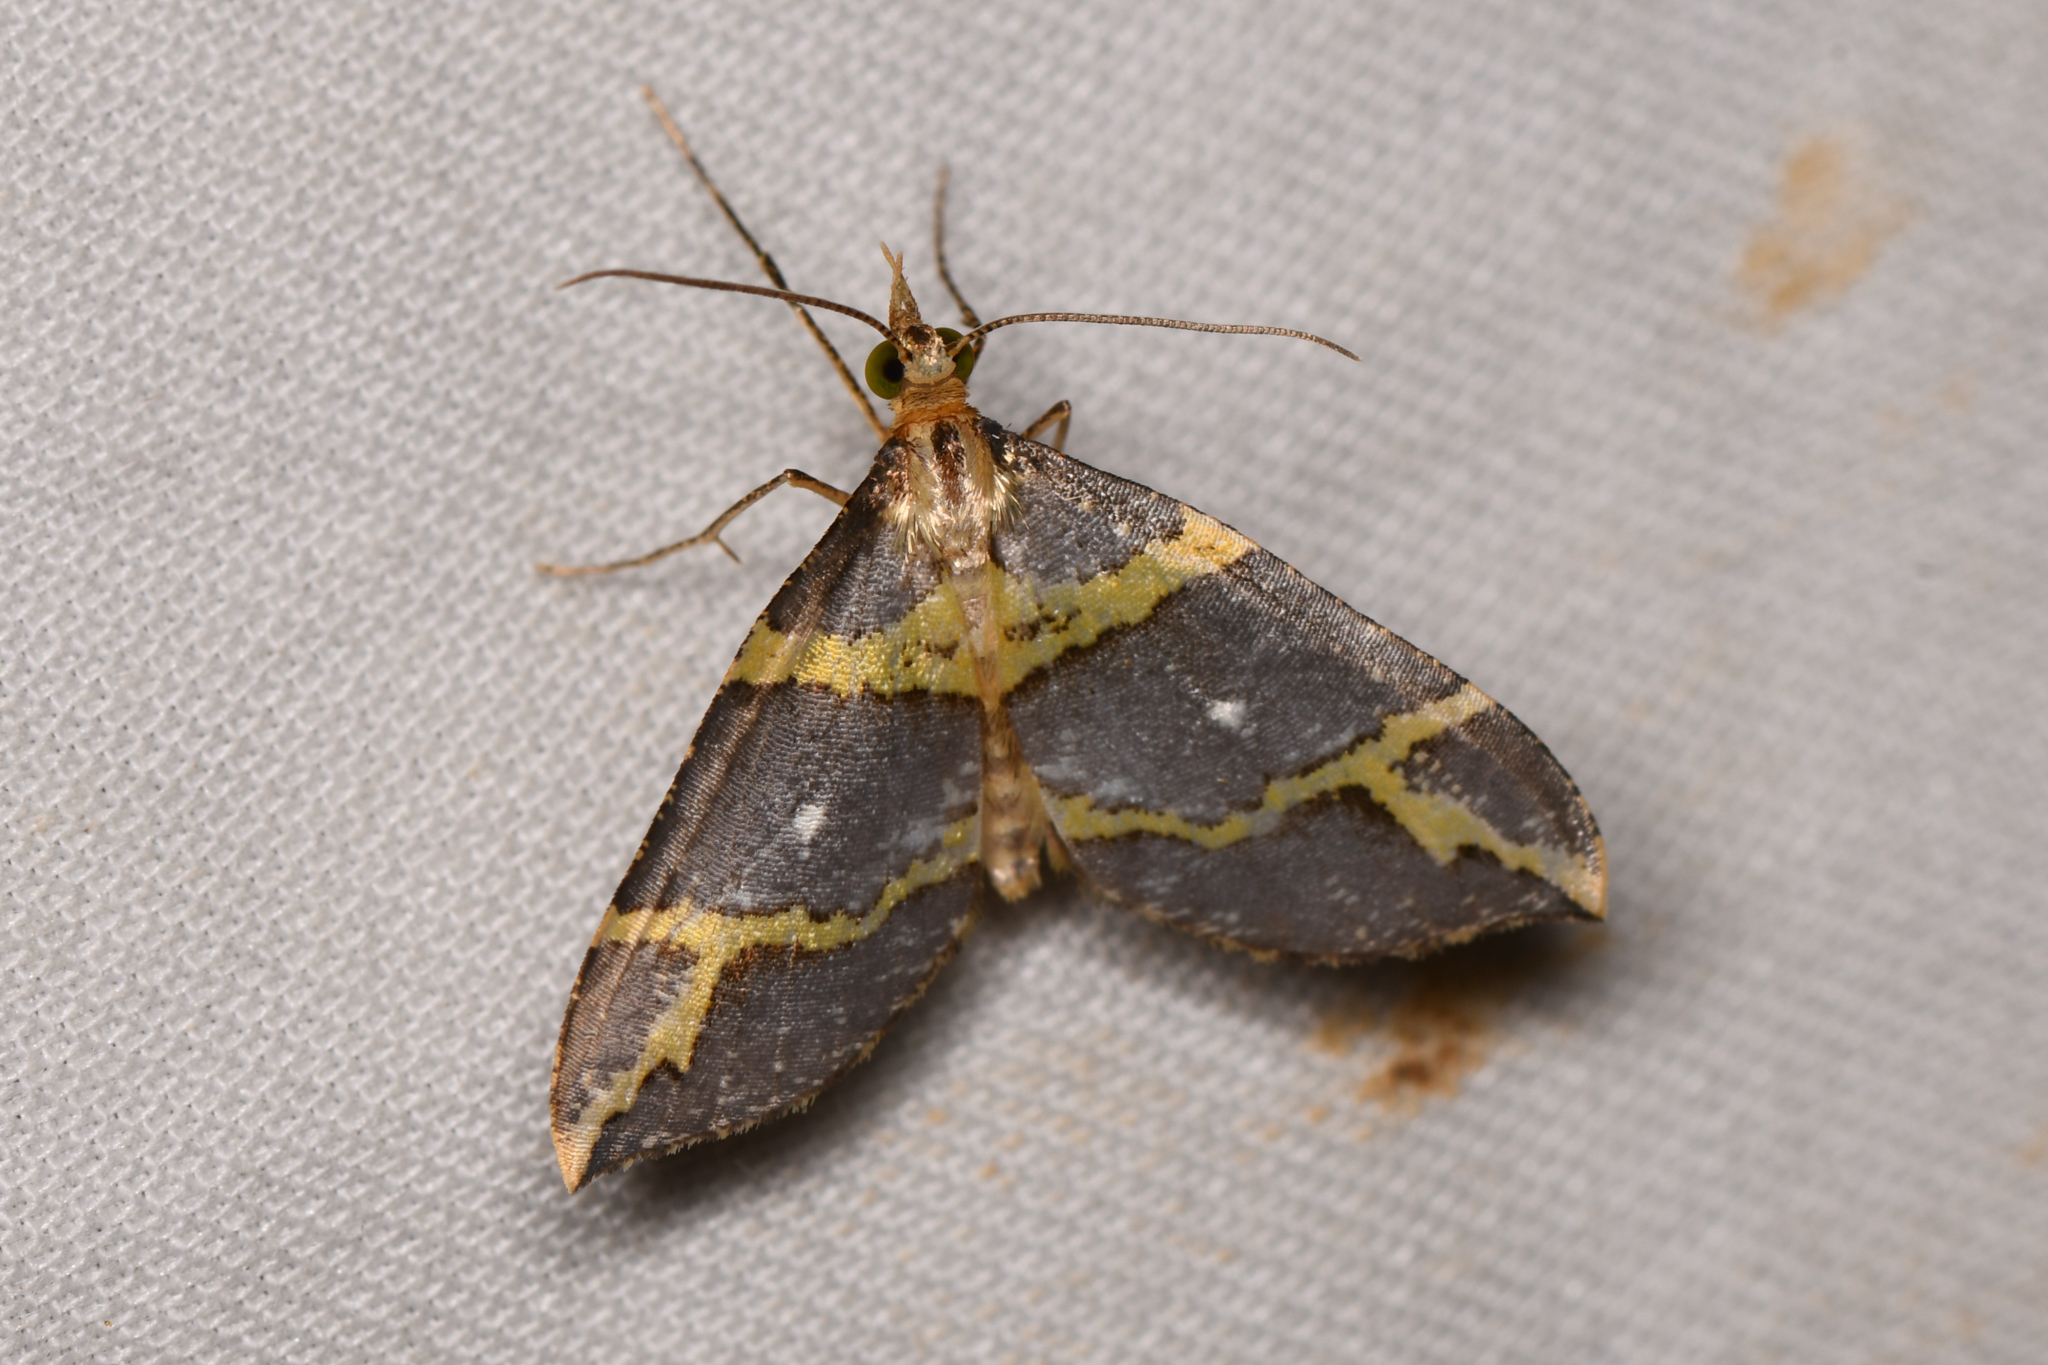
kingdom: Animalia
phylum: Arthropoda
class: Insecta
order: Lepidoptera
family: Geometridae
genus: Psaliodes
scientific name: Psaliodes infantula
